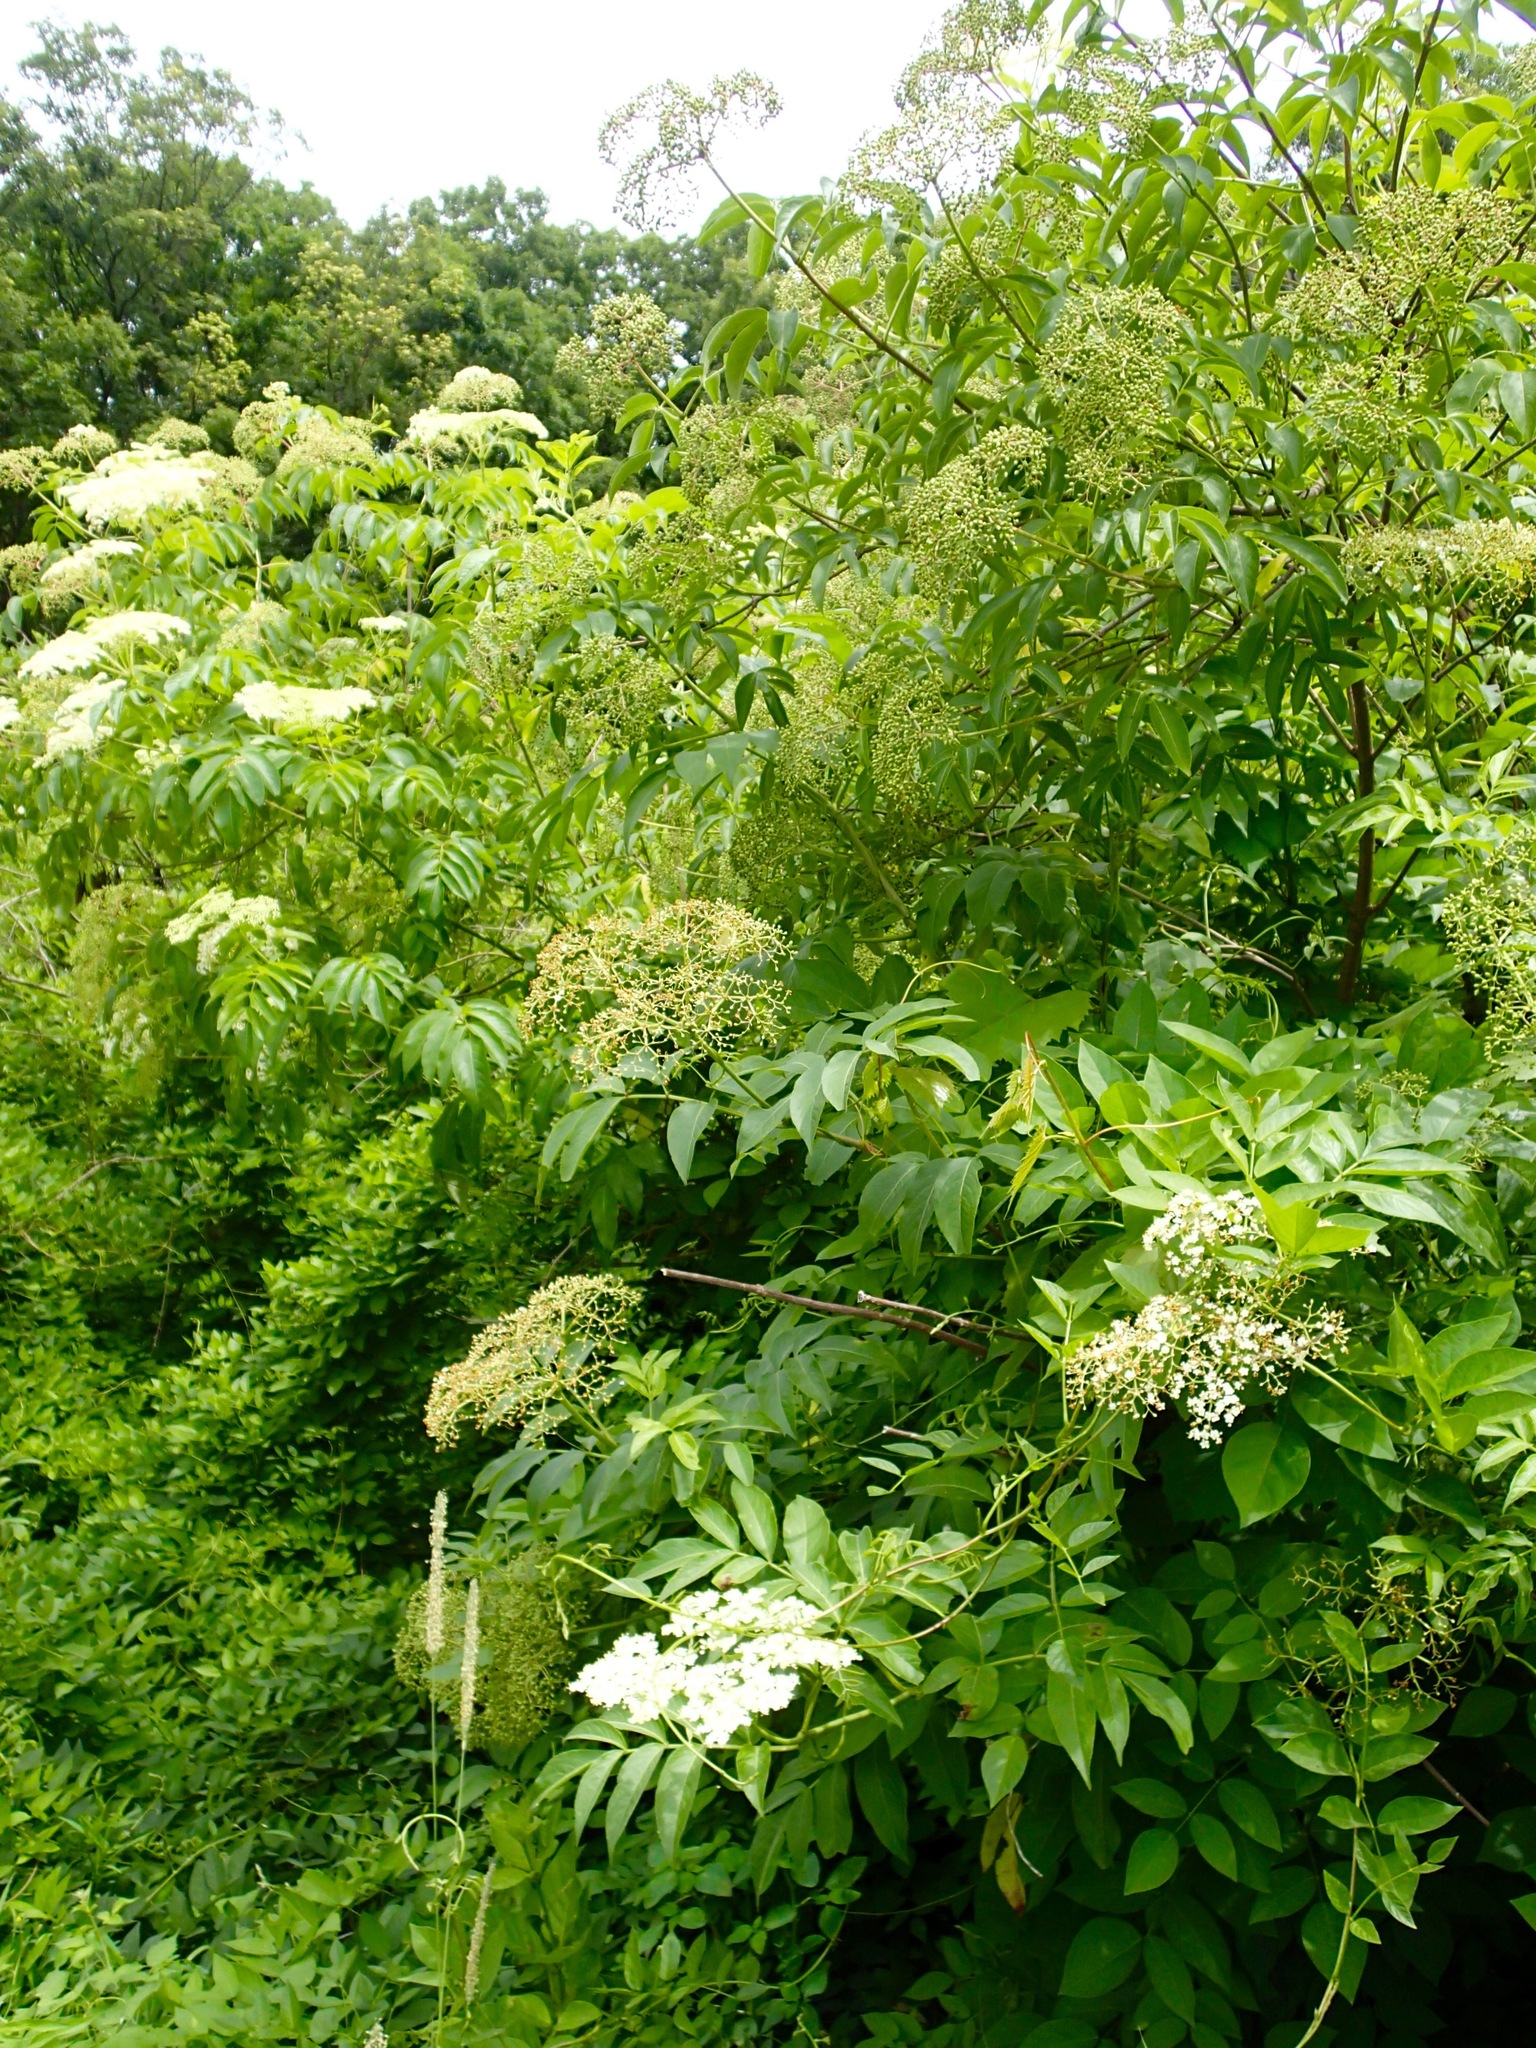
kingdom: Plantae
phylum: Tracheophyta
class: Magnoliopsida
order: Dipsacales
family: Viburnaceae
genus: Sambucus
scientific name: Sambucus canadensis
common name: American elder
